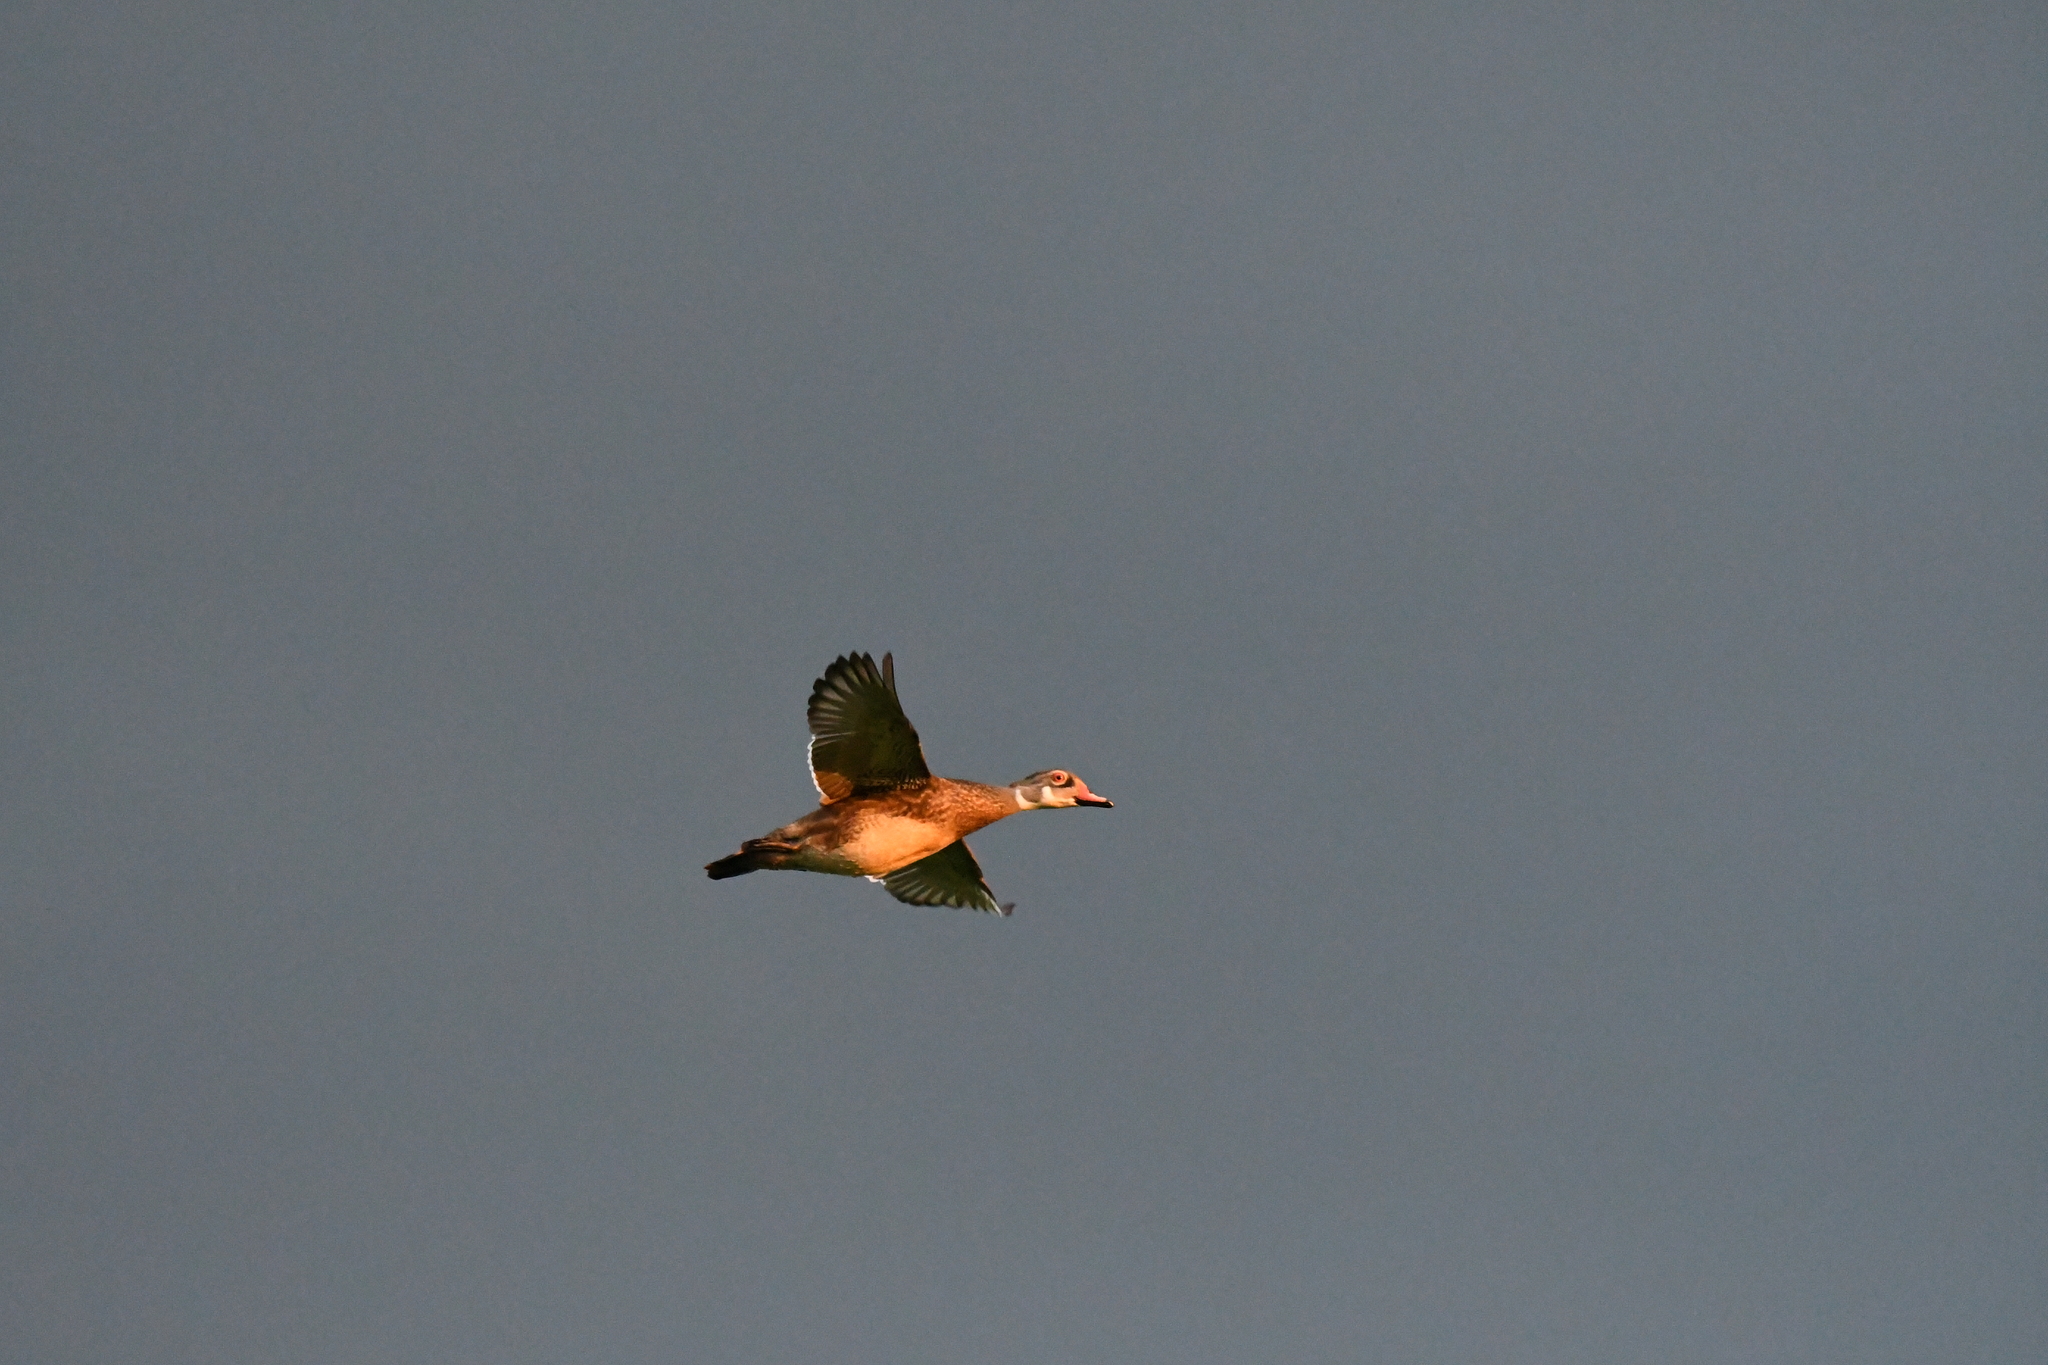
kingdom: Animalia
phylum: Chordata
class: Aves
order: Anseriformes
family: Anatidae
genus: Aix
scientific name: Aix sponsa
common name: Wood duck
